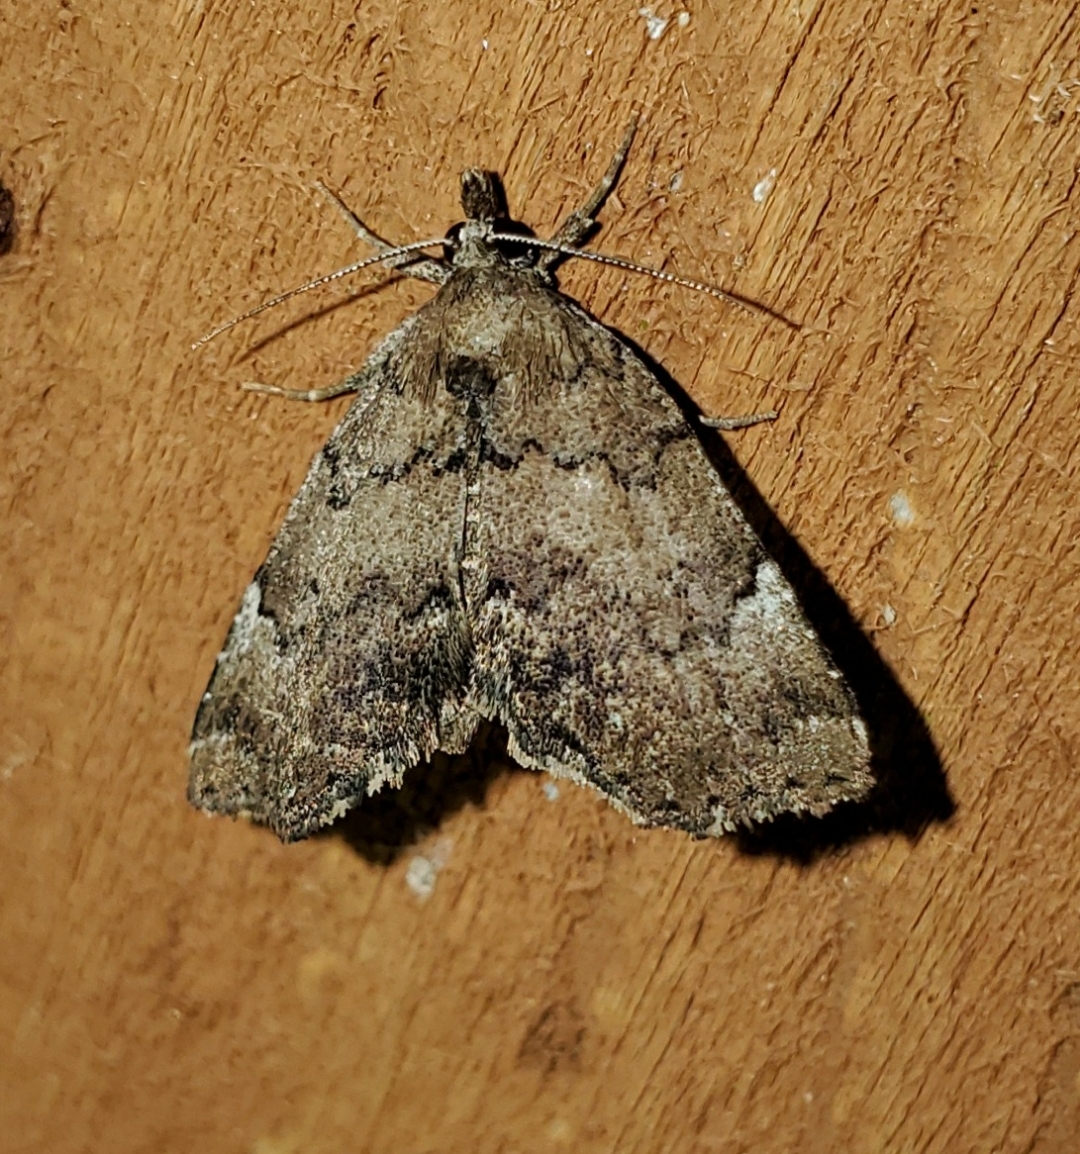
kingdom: Animalia
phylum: Arthropoda
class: Insecta
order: Lepidoptera
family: Erebidae
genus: Cutina
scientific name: Cutina aluticolor
